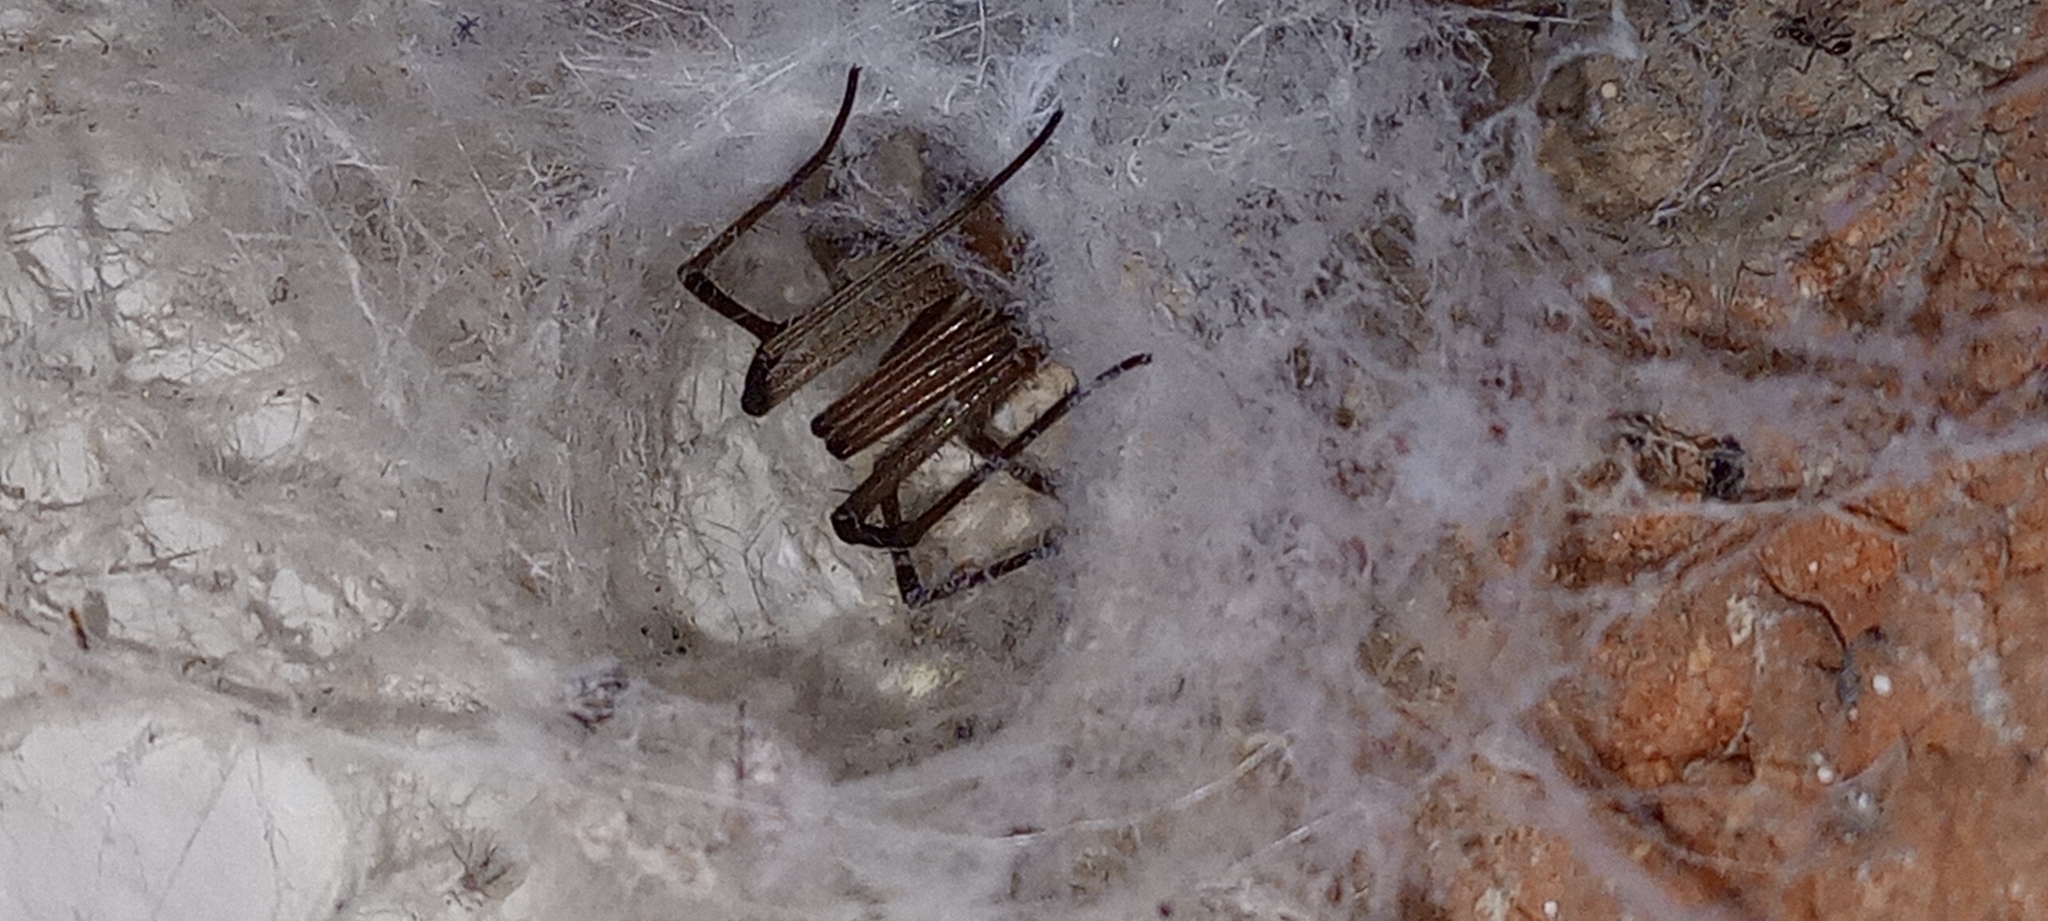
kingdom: Animalia
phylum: Arthropoda
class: Arachnida
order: Araneae
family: Filistatidae
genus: Kukulcania
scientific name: Kukulcania hibernalis
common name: Crevice weaver
